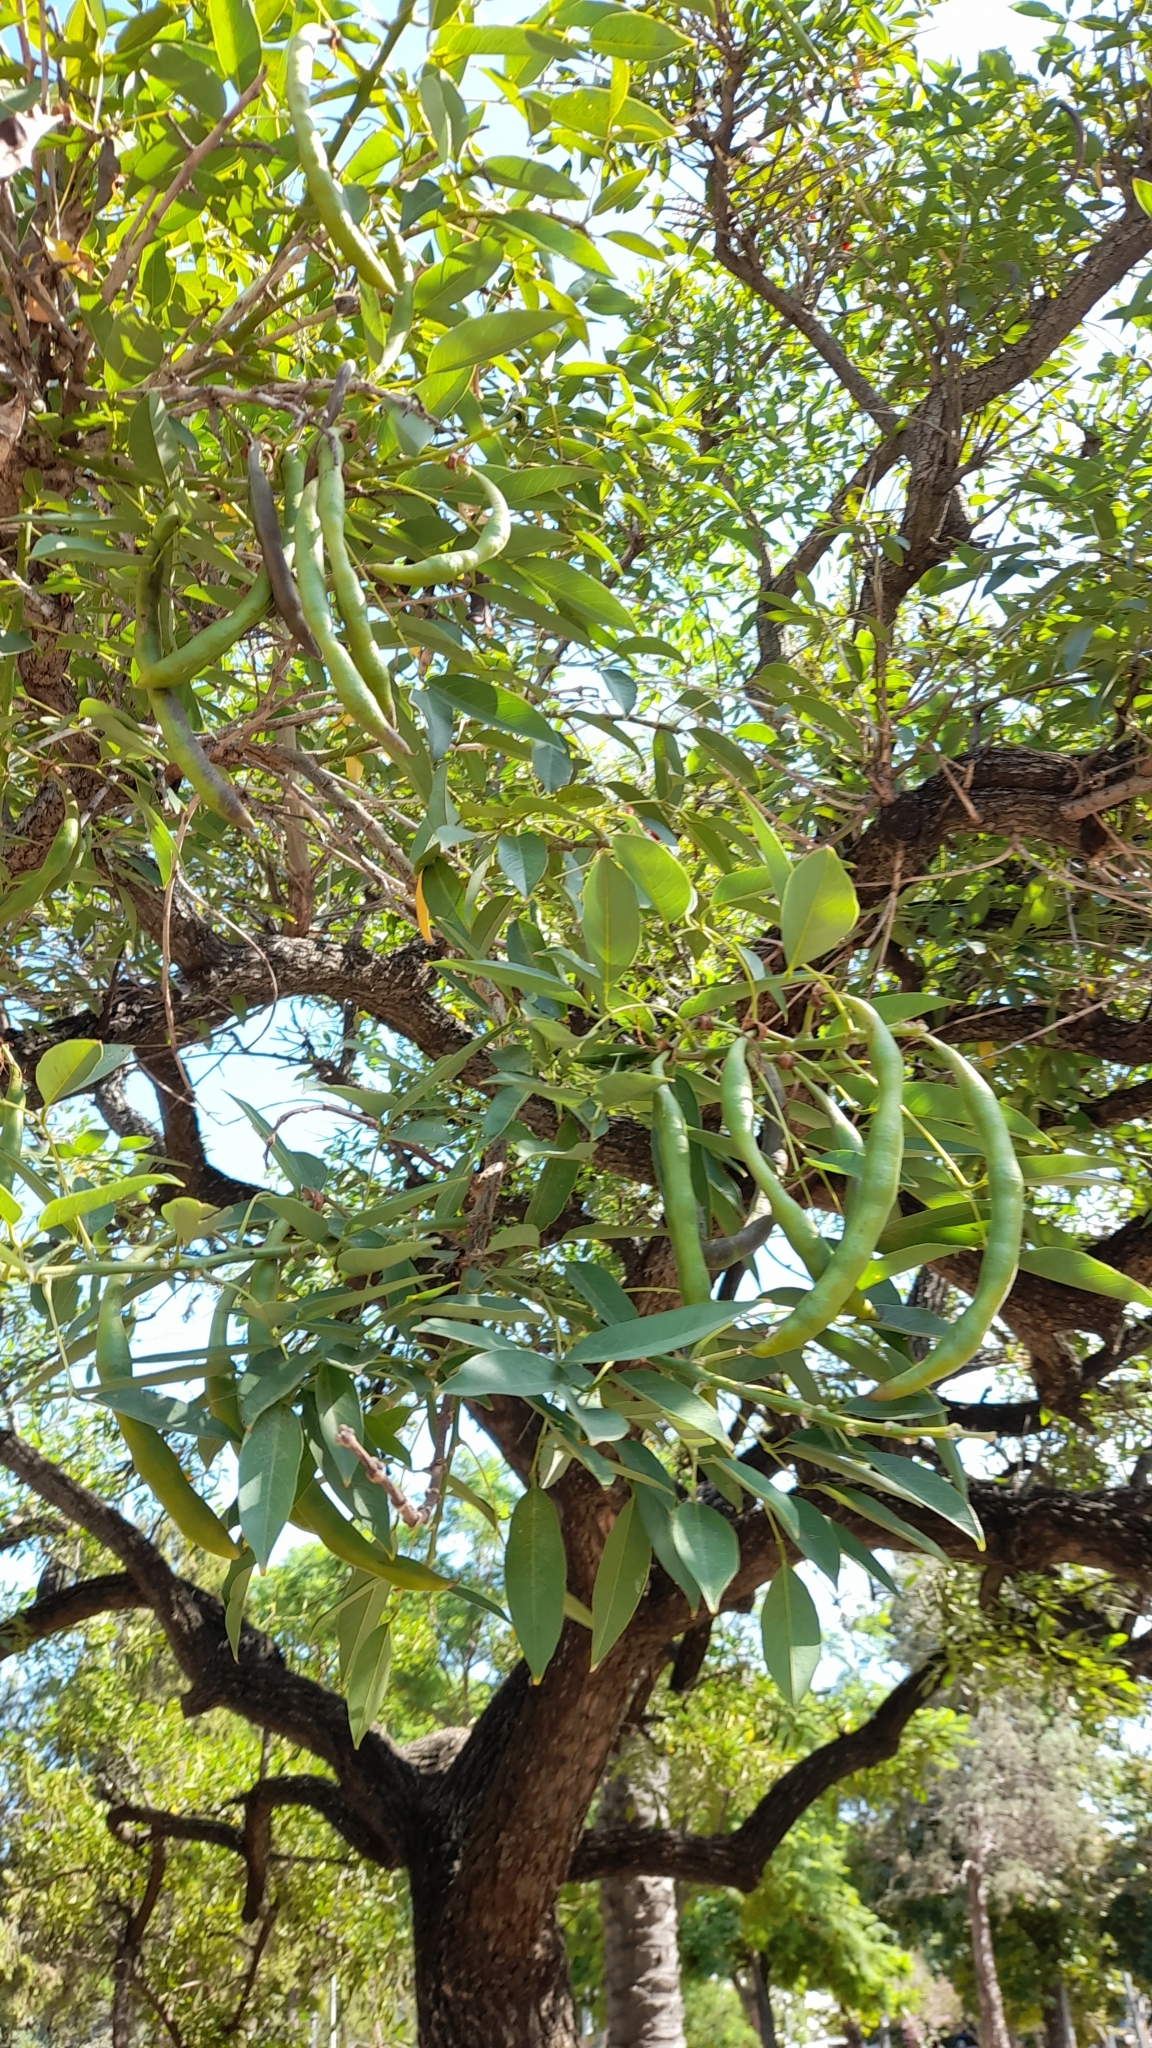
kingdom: Plantae
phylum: Tracheophyta
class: Magnoliopsida
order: Fabales
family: Fabaceae
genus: Erythrina
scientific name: Erythrina crista-galli
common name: Cockspur coral tree
